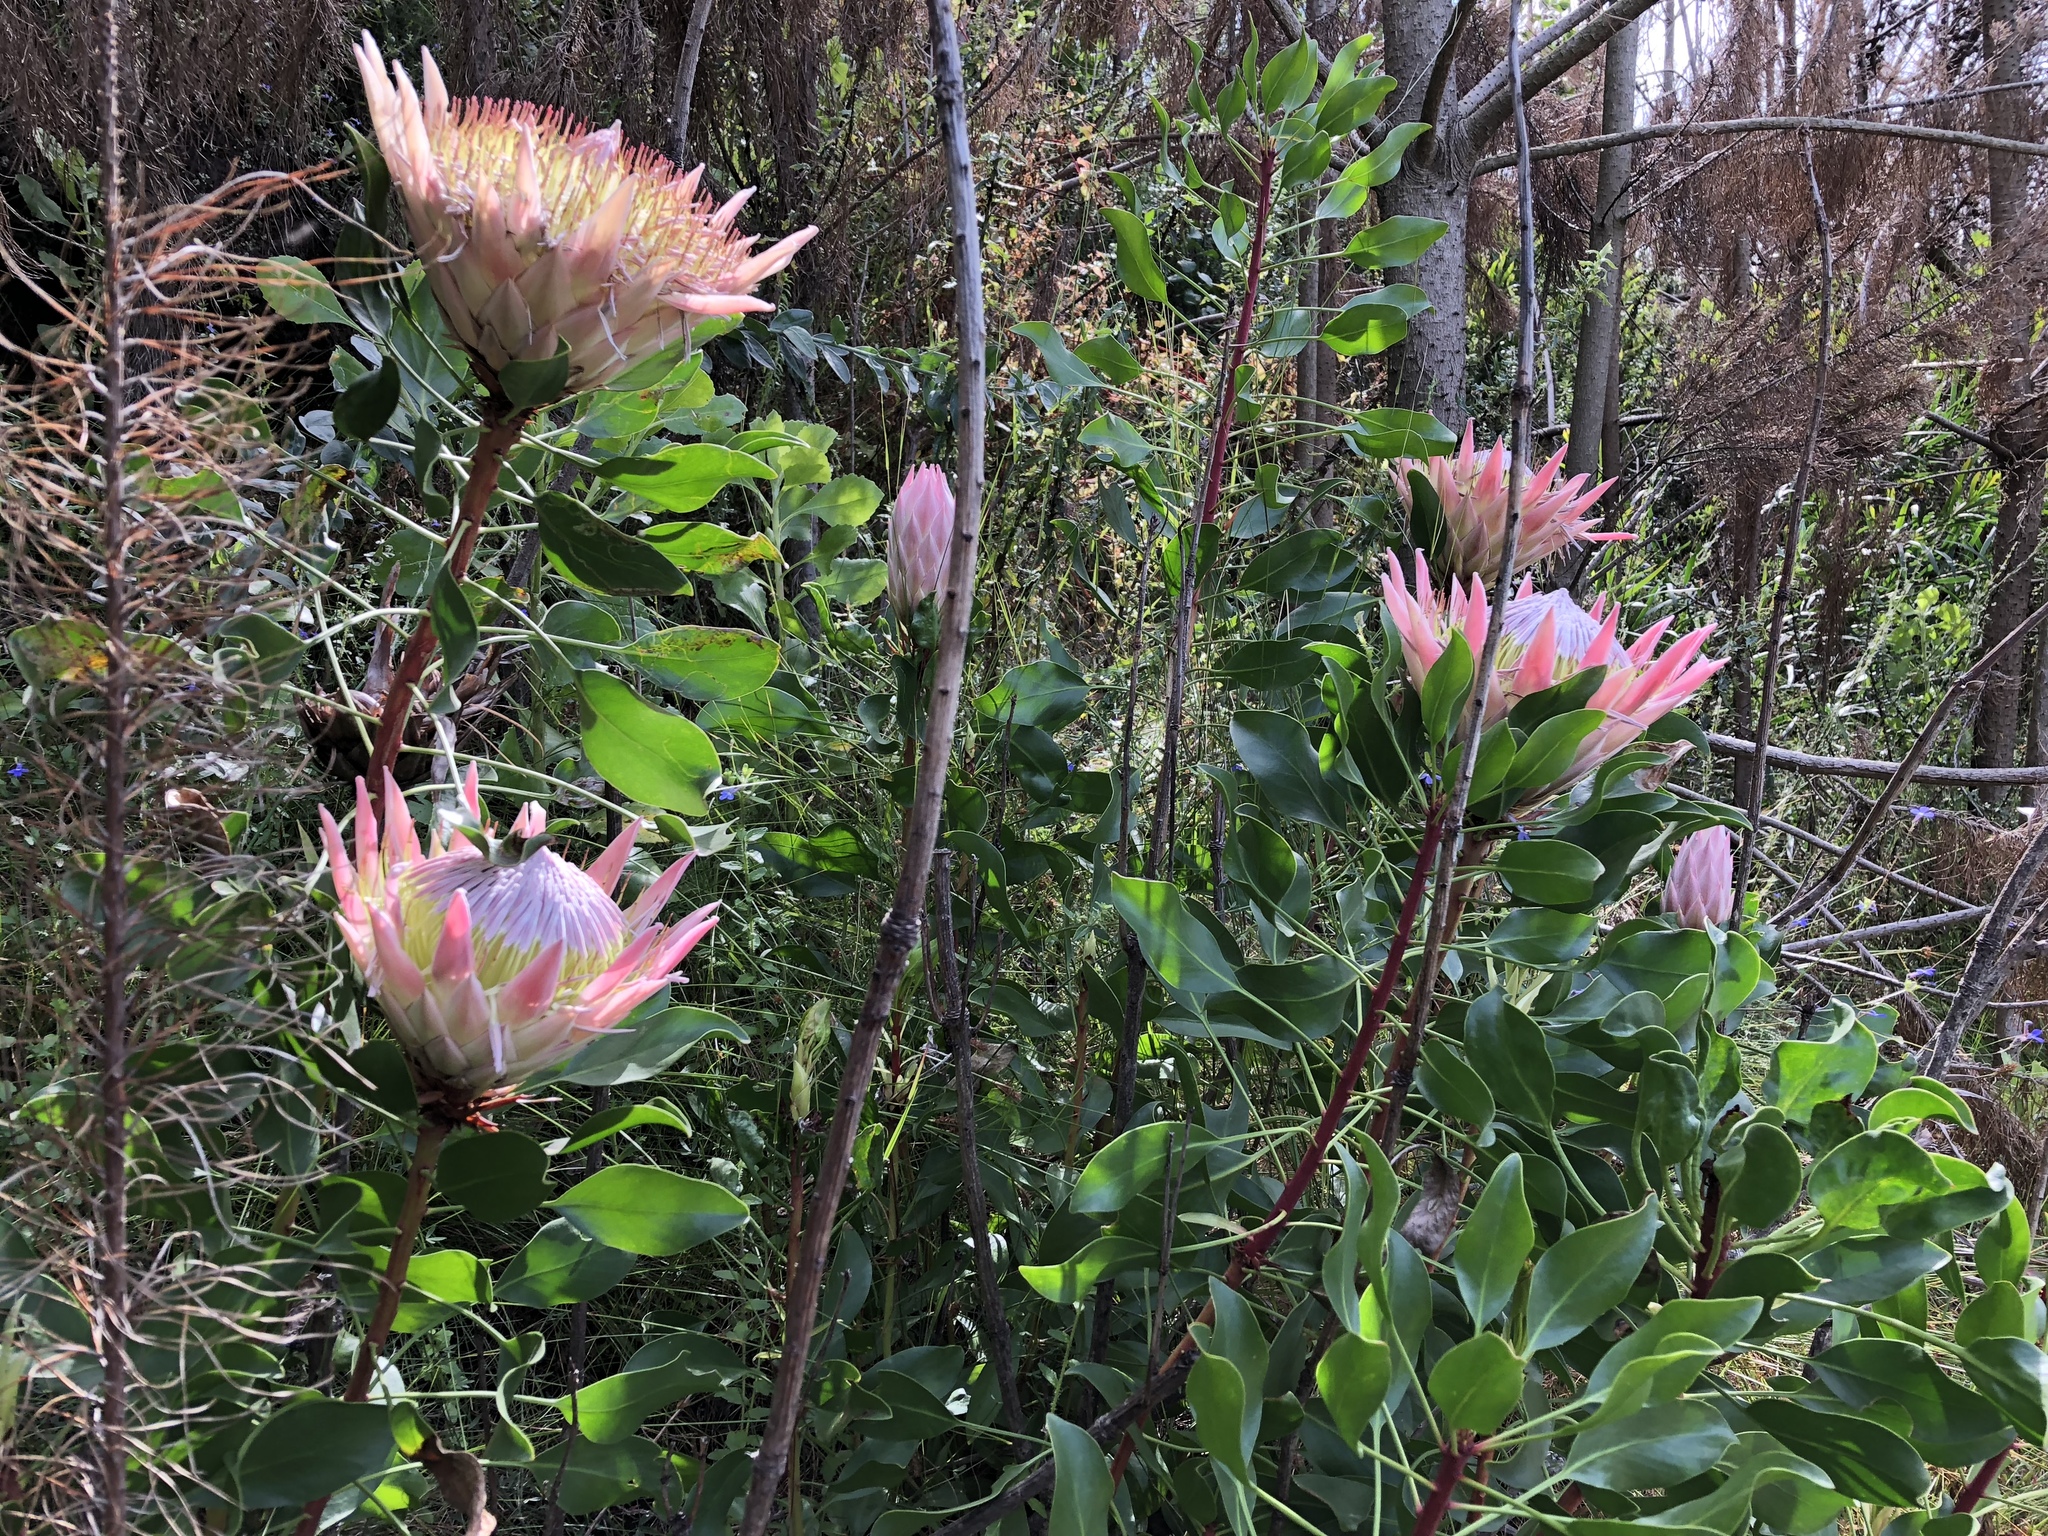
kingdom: Plantae
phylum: Tracheophyta
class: Magnoliopsida
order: Proteales
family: Proteaceae
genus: Protea
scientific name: Protea cynaroides
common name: King protea
